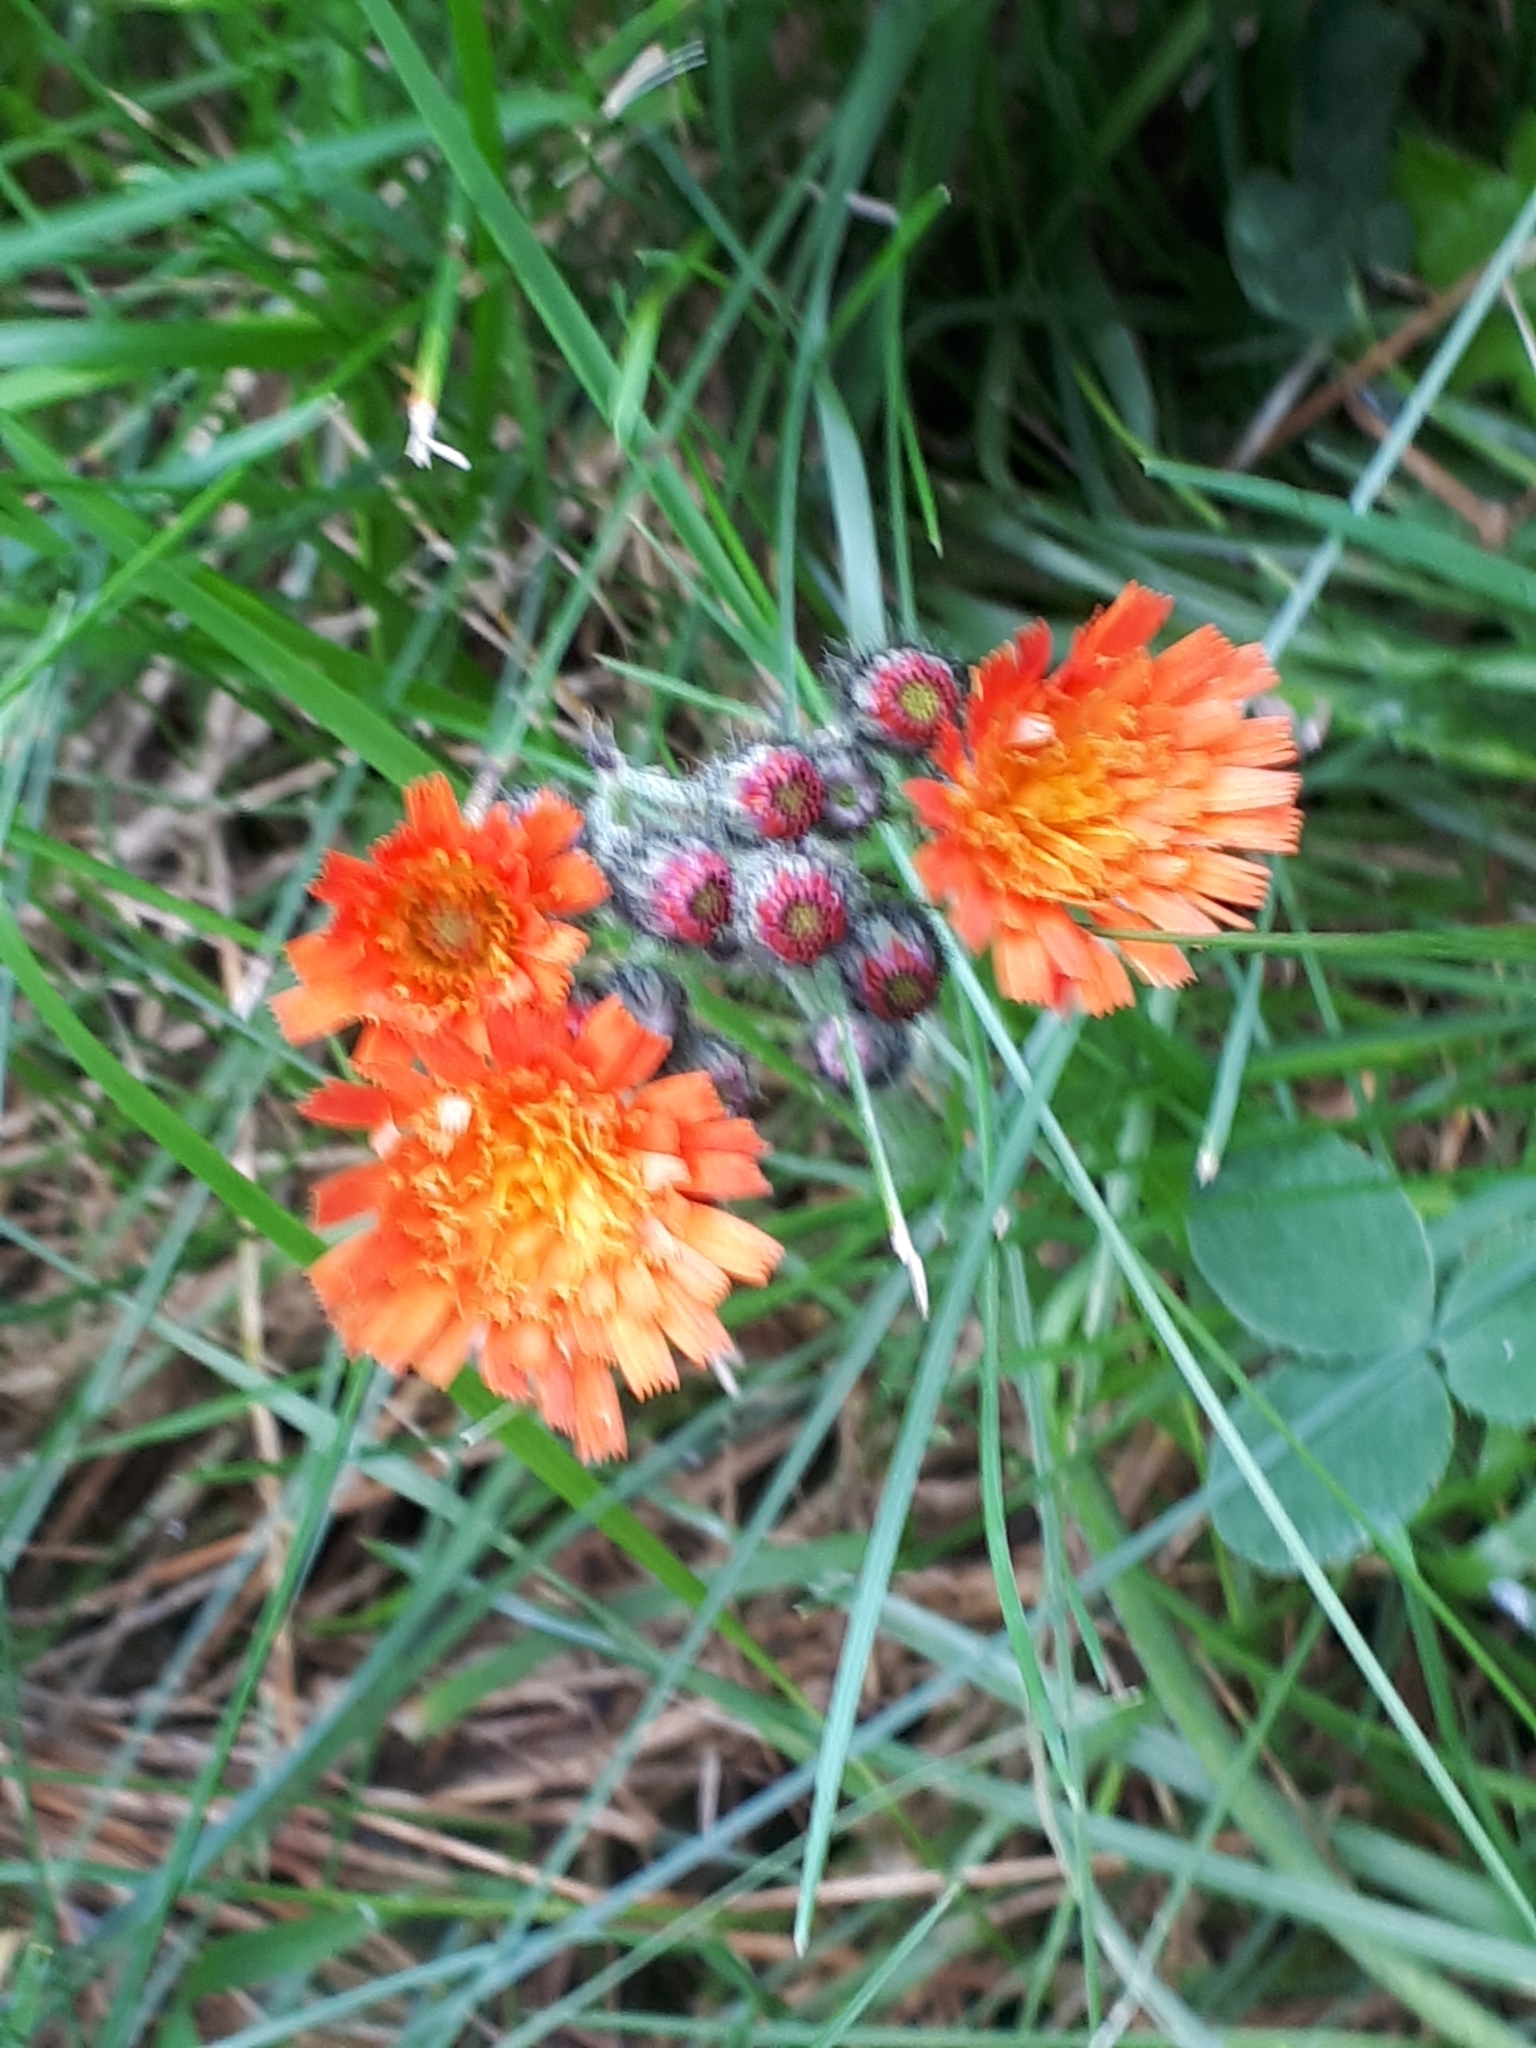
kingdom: Plantae
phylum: Tracheophyta
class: Magnoliopsida
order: Asterales
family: Asteraceae
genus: Pilosella
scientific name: Pilosella aurantiaca
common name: Fox-and-cubs
